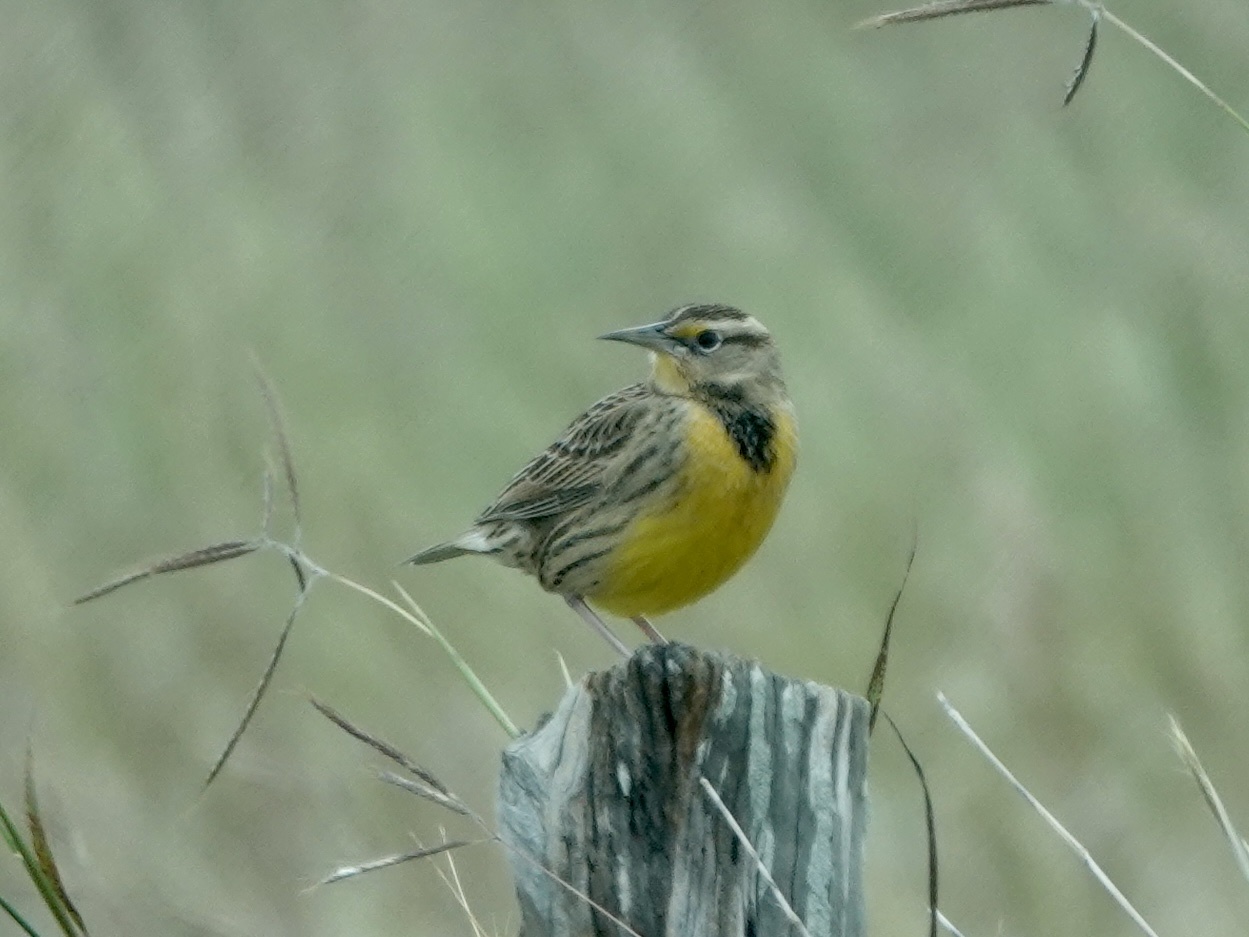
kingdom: Animalia
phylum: Chordata
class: Aves
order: Passeriformes
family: Icteridae
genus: Sturnella
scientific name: Sturnella magna
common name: Eastern meadowlark
